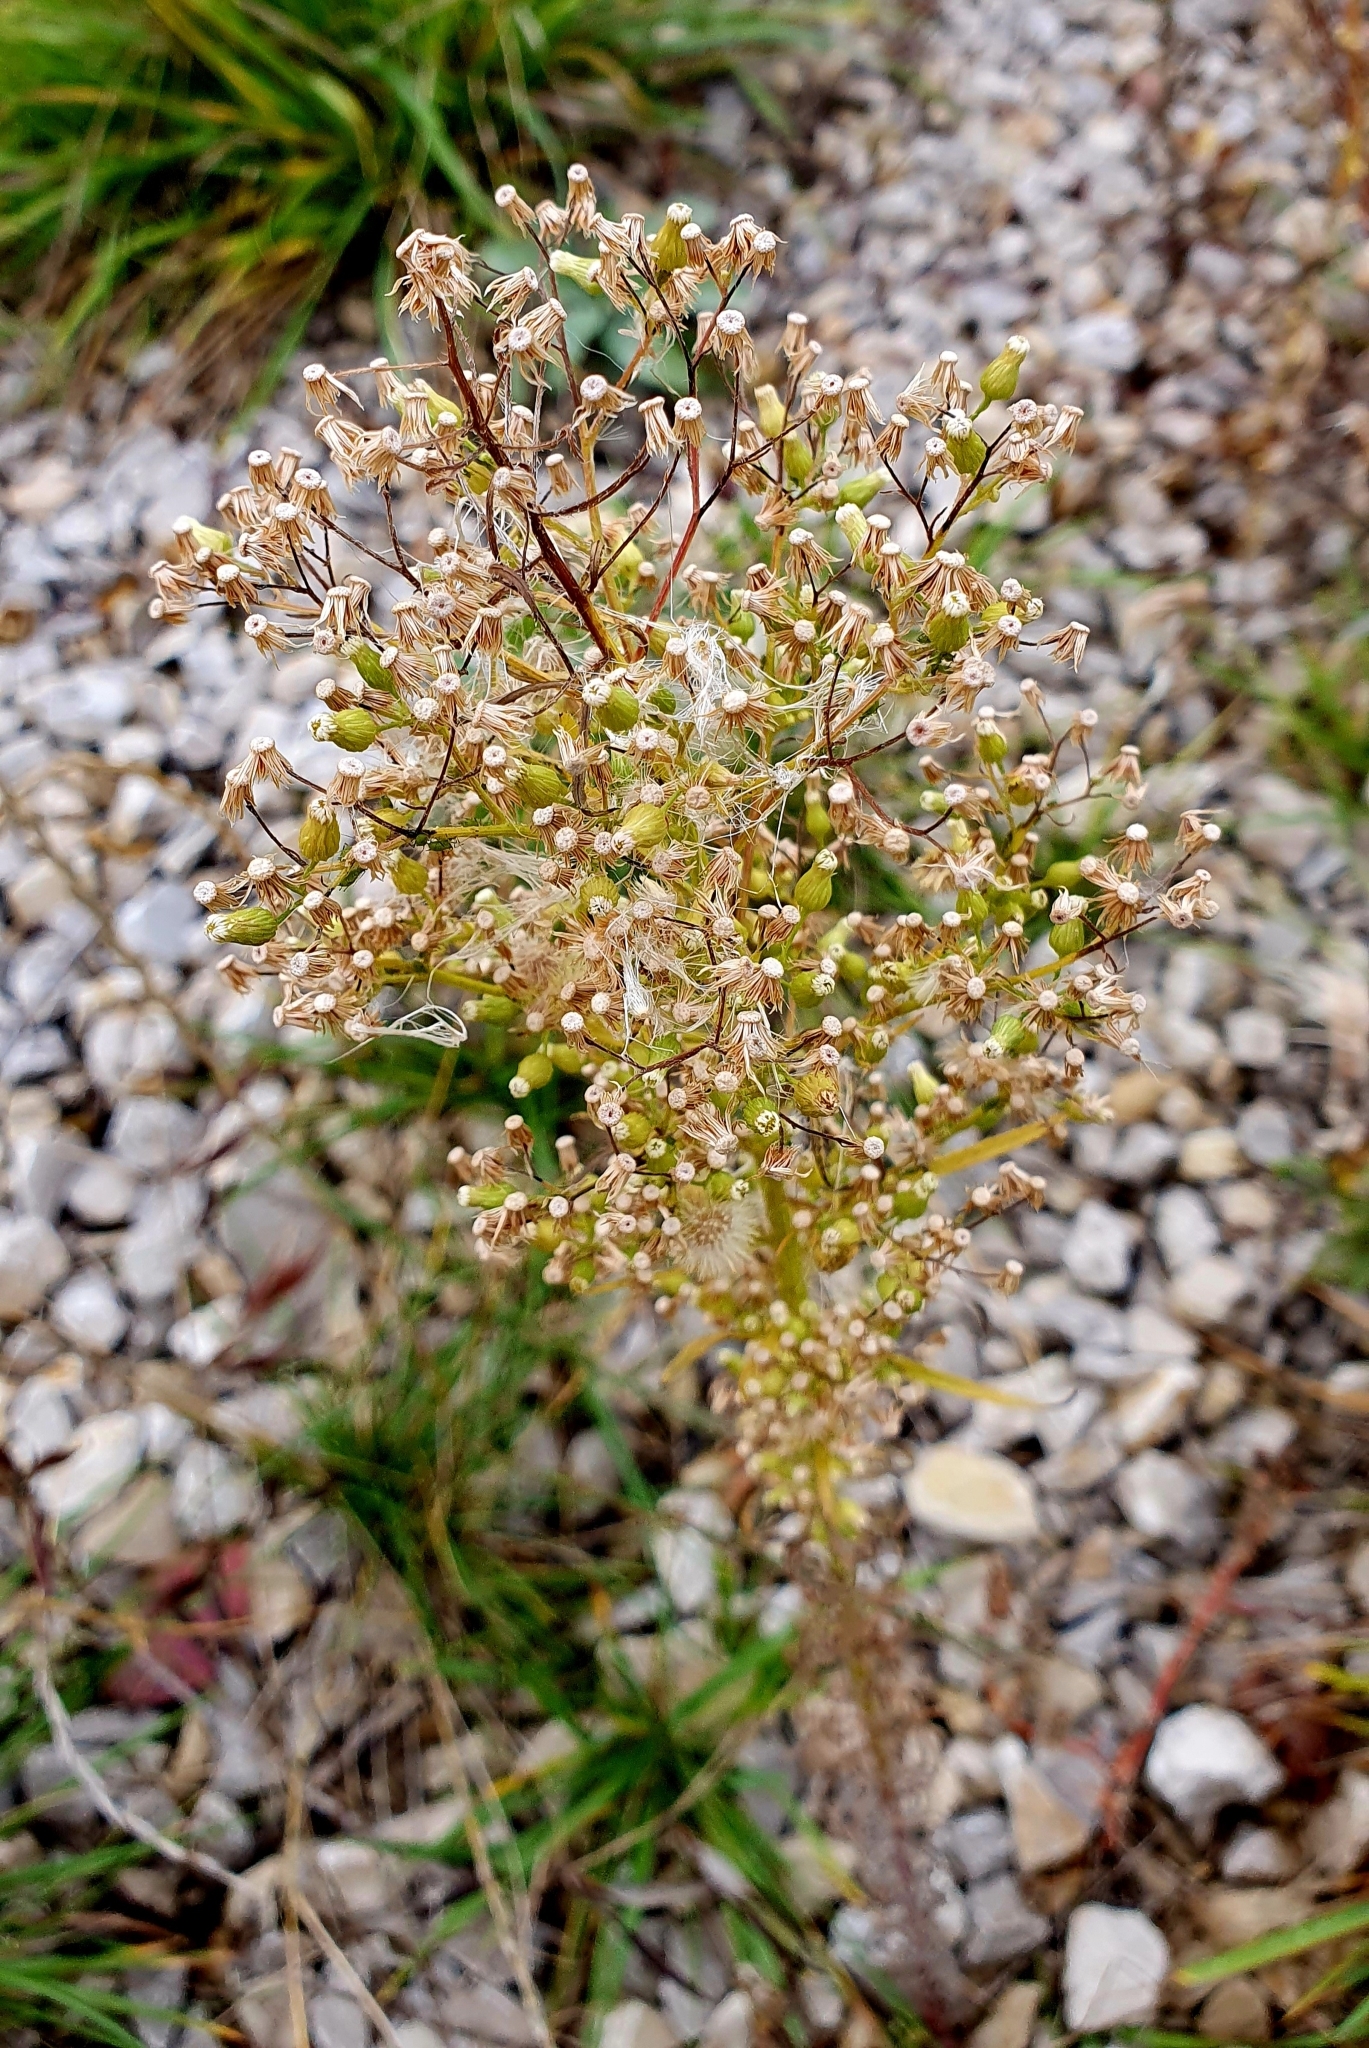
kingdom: Plantae
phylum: Tracheophyta
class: Magnoliopsida
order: Asterales
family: Asteraceae
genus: Erigeron
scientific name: Erigeron canadensis
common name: Canadian fleabane
